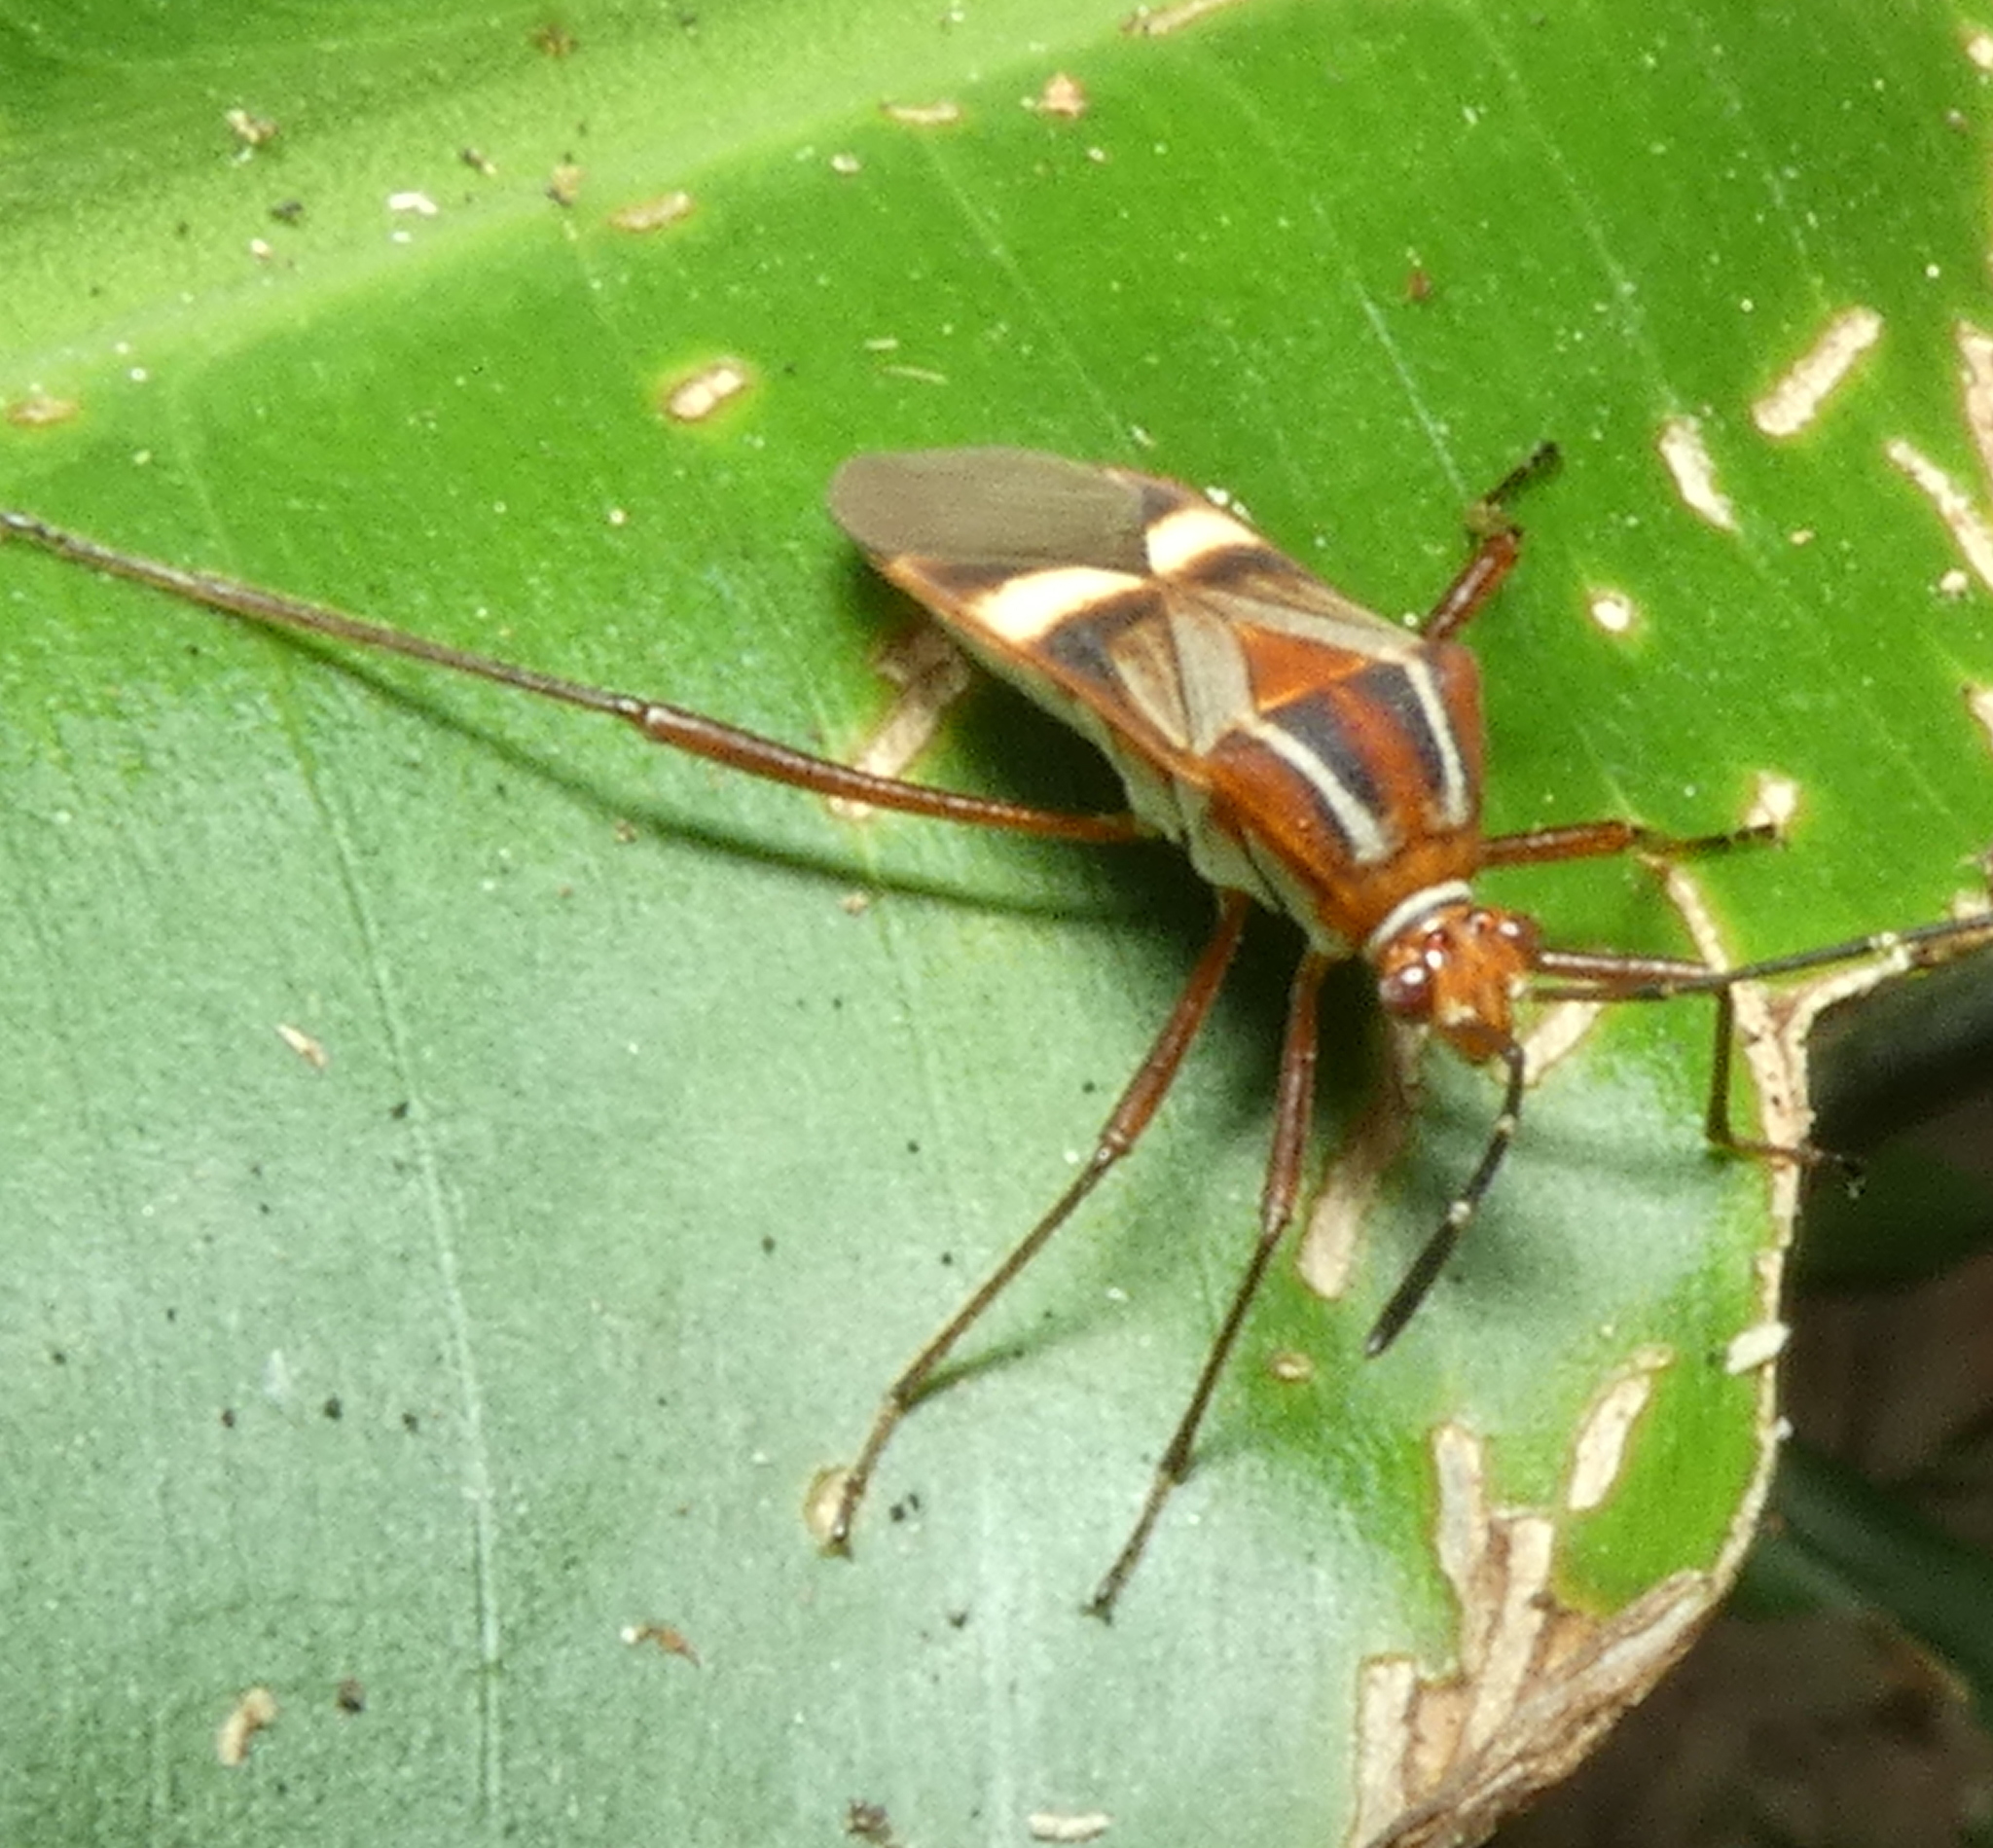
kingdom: Animalia
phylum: Arthropoda
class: Insecta
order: Hemiptera
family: Coreidae
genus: Hypselonotus
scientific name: Hypselonotus interruptus
